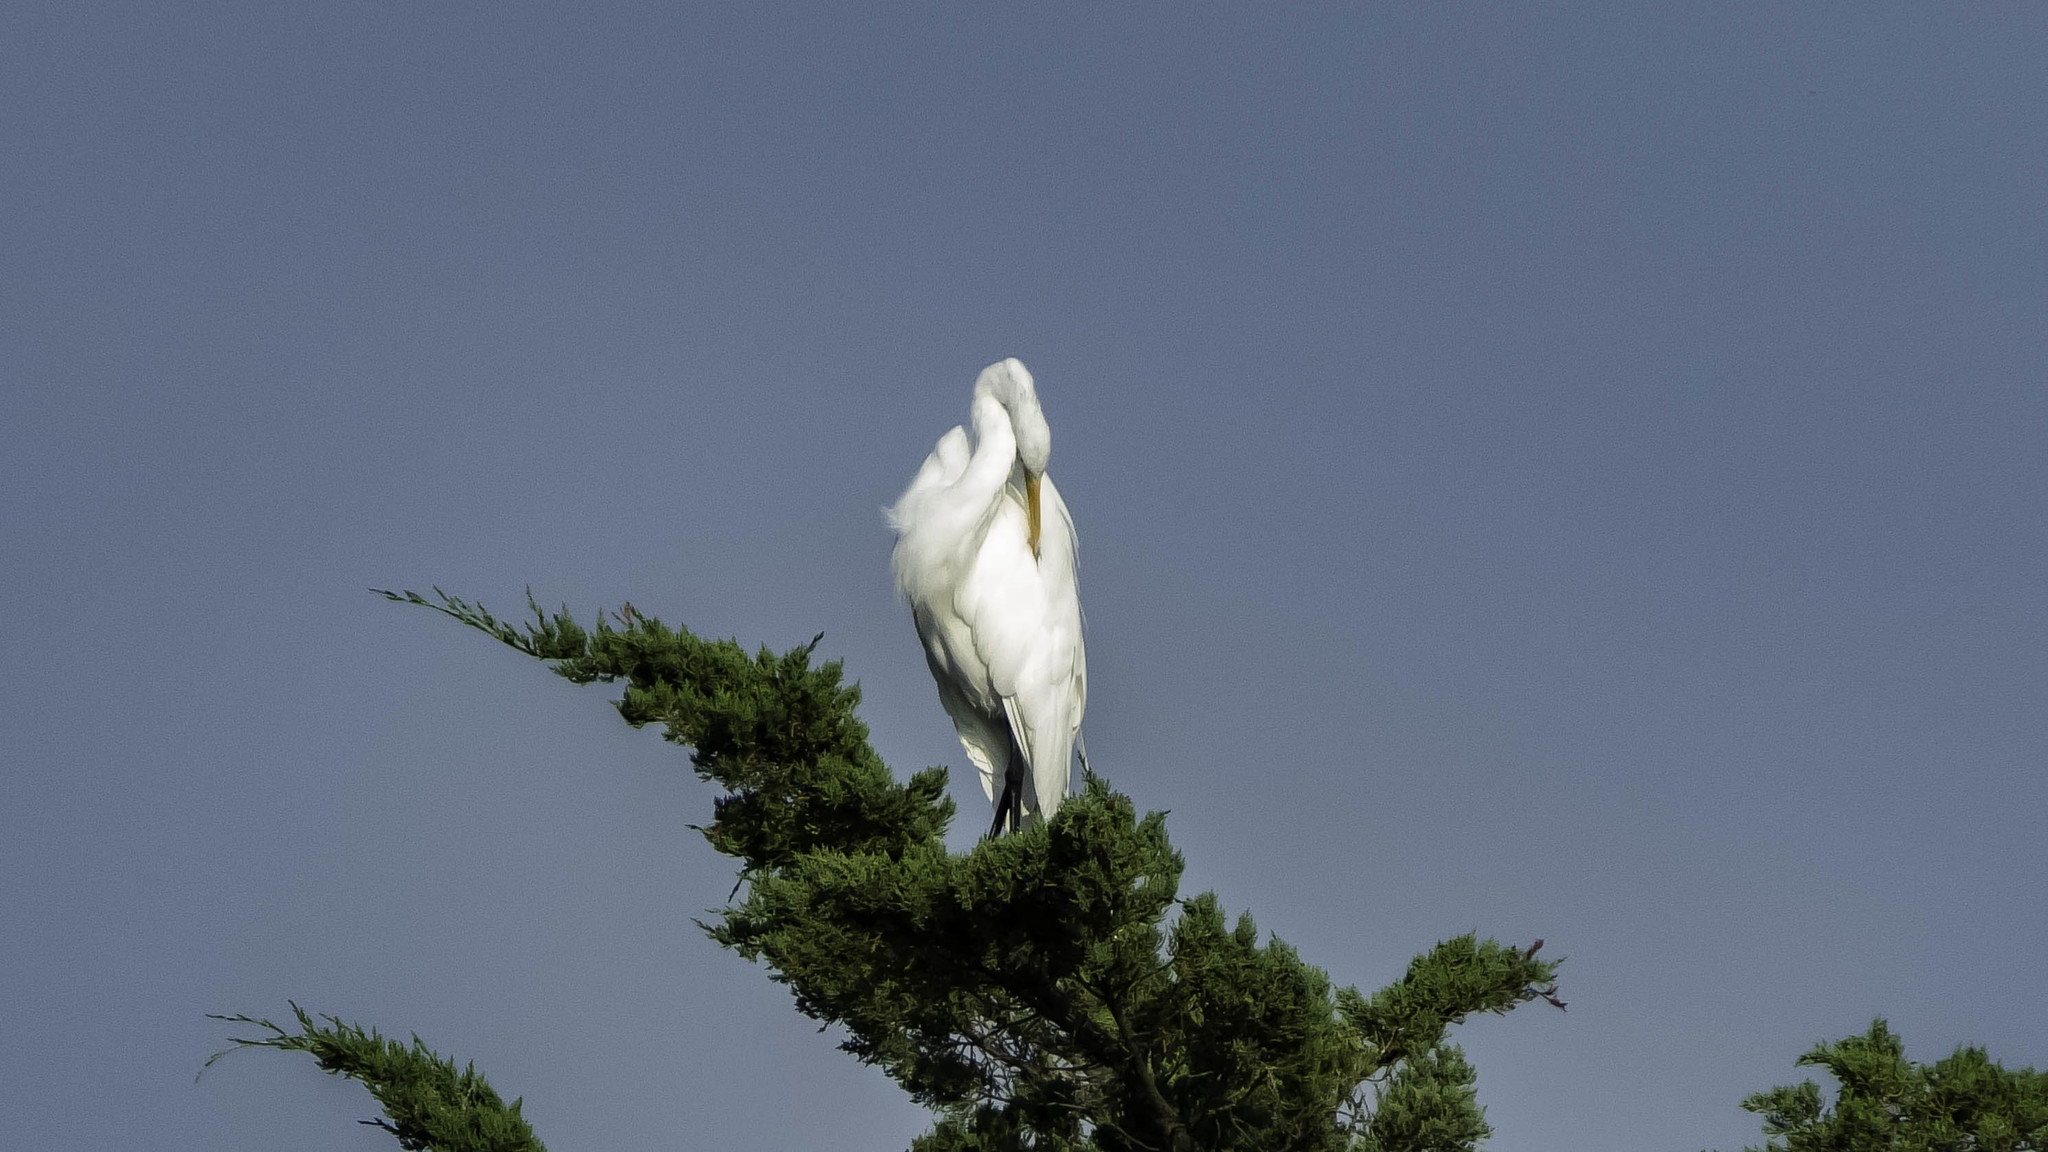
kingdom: Animalia
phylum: Chordata
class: Aves
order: Pelecaniformes
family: Ardeidae
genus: Ardea
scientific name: Ardea alba
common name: Great egret
